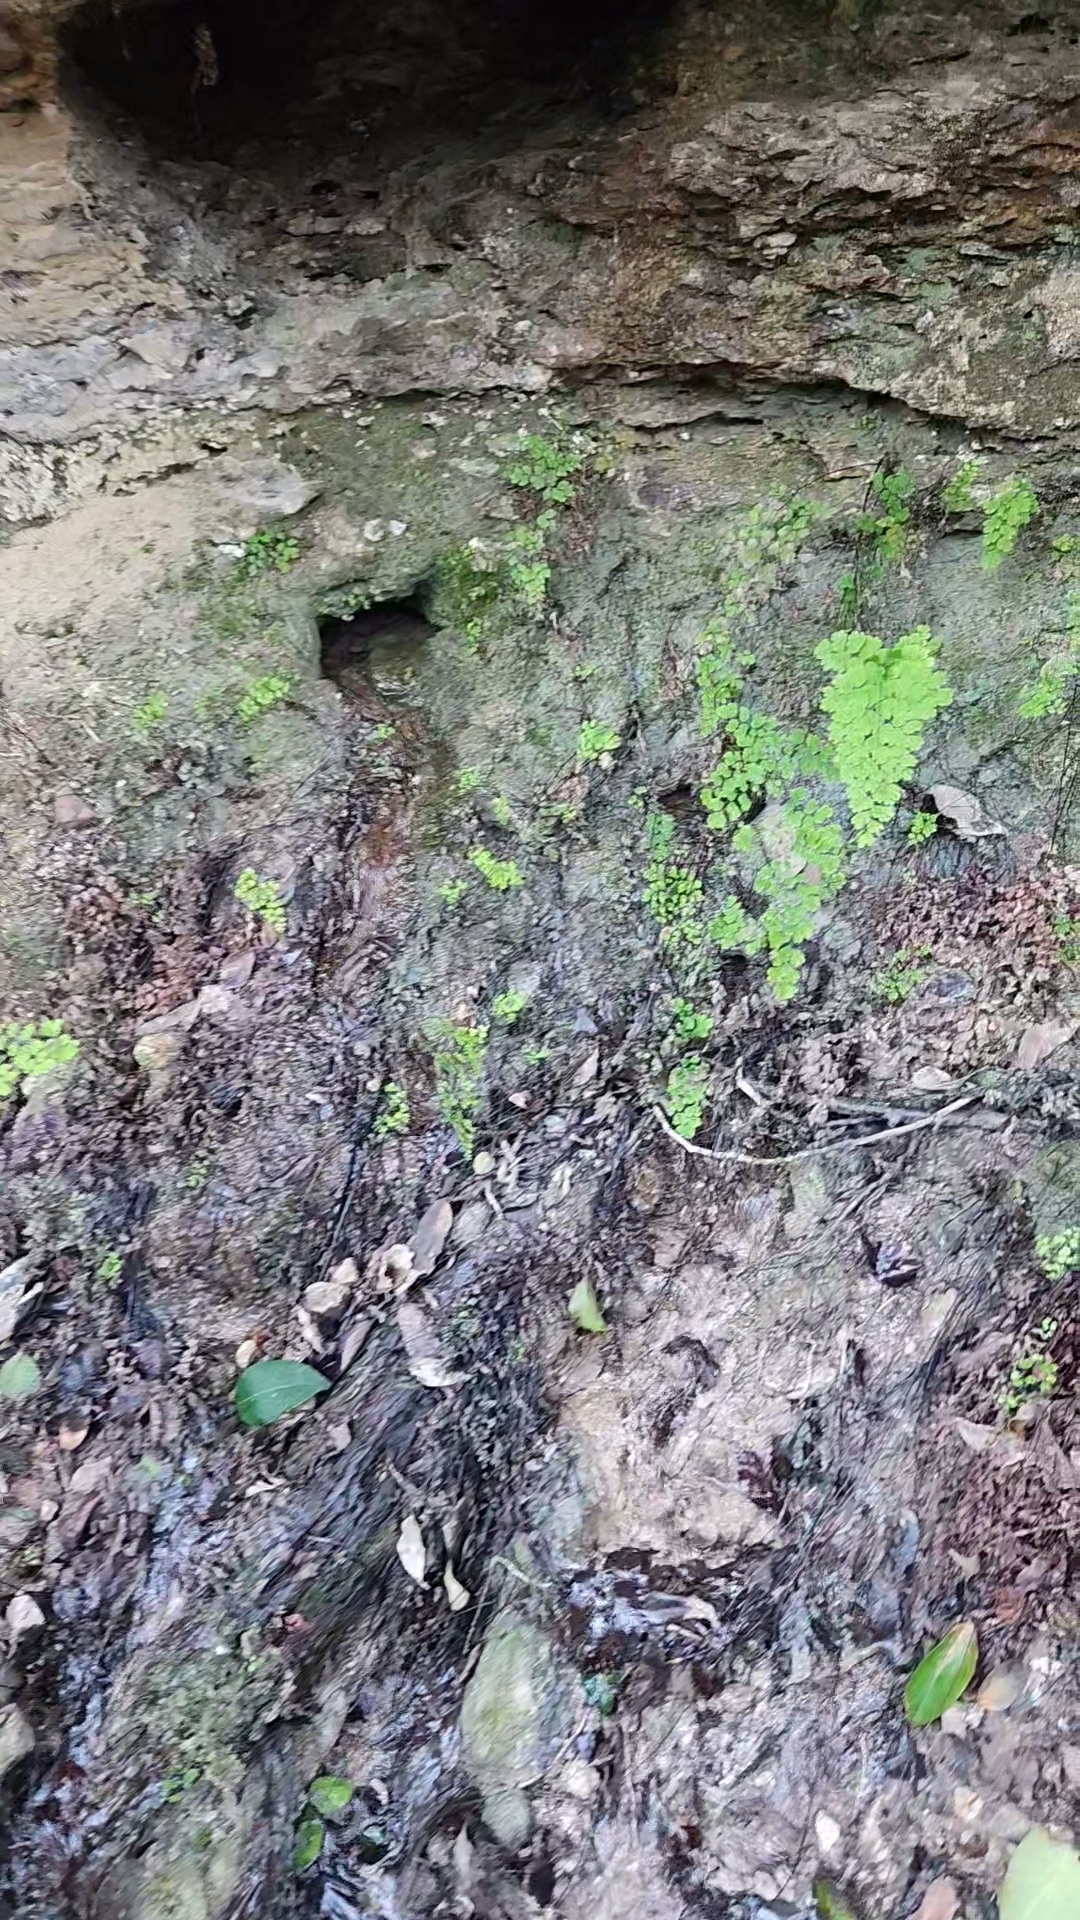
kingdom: Plantae
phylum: Tracheophyta
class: Polypodiopsida
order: Polypodiales
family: Pteridaceae
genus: Adiantum
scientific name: Adiantum capillus-veneris
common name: Maidenhair fern
